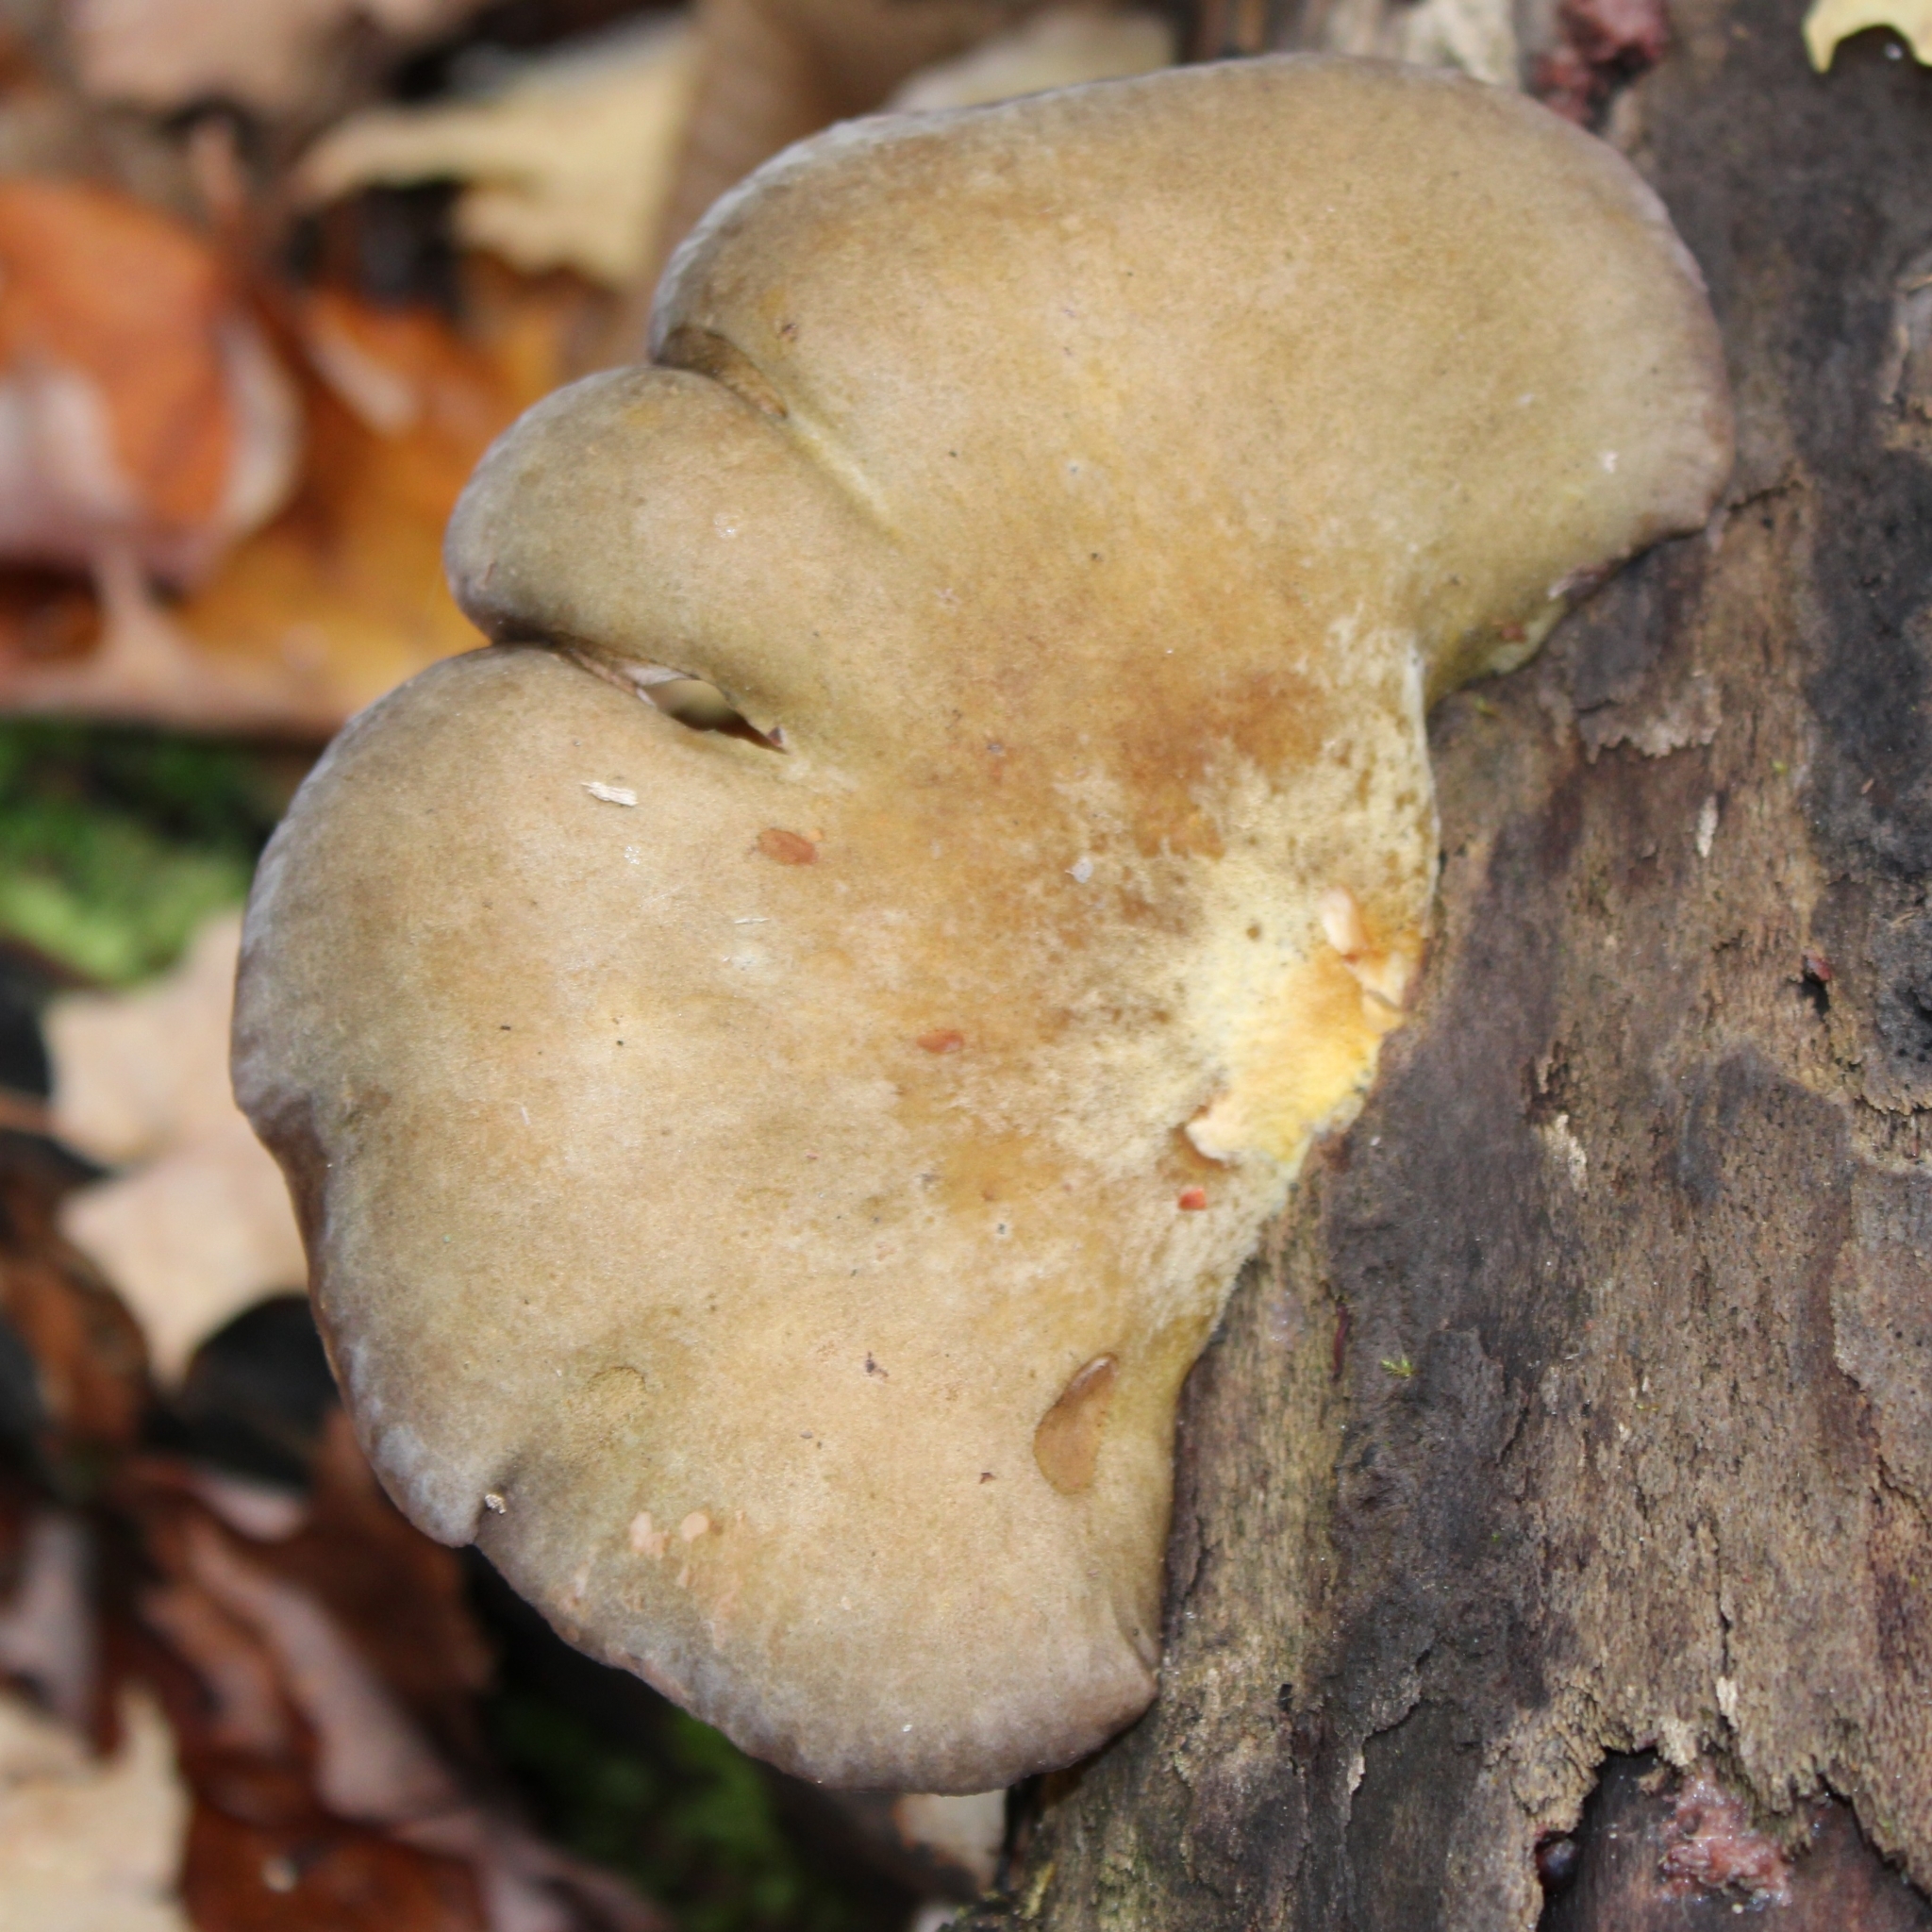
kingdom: Fungi
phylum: Basidiomycota
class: Agaricomycetes
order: Agaricales
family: Sarcomyxaceae
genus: Sarcomyxa
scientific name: Sarcomyxa serotina
